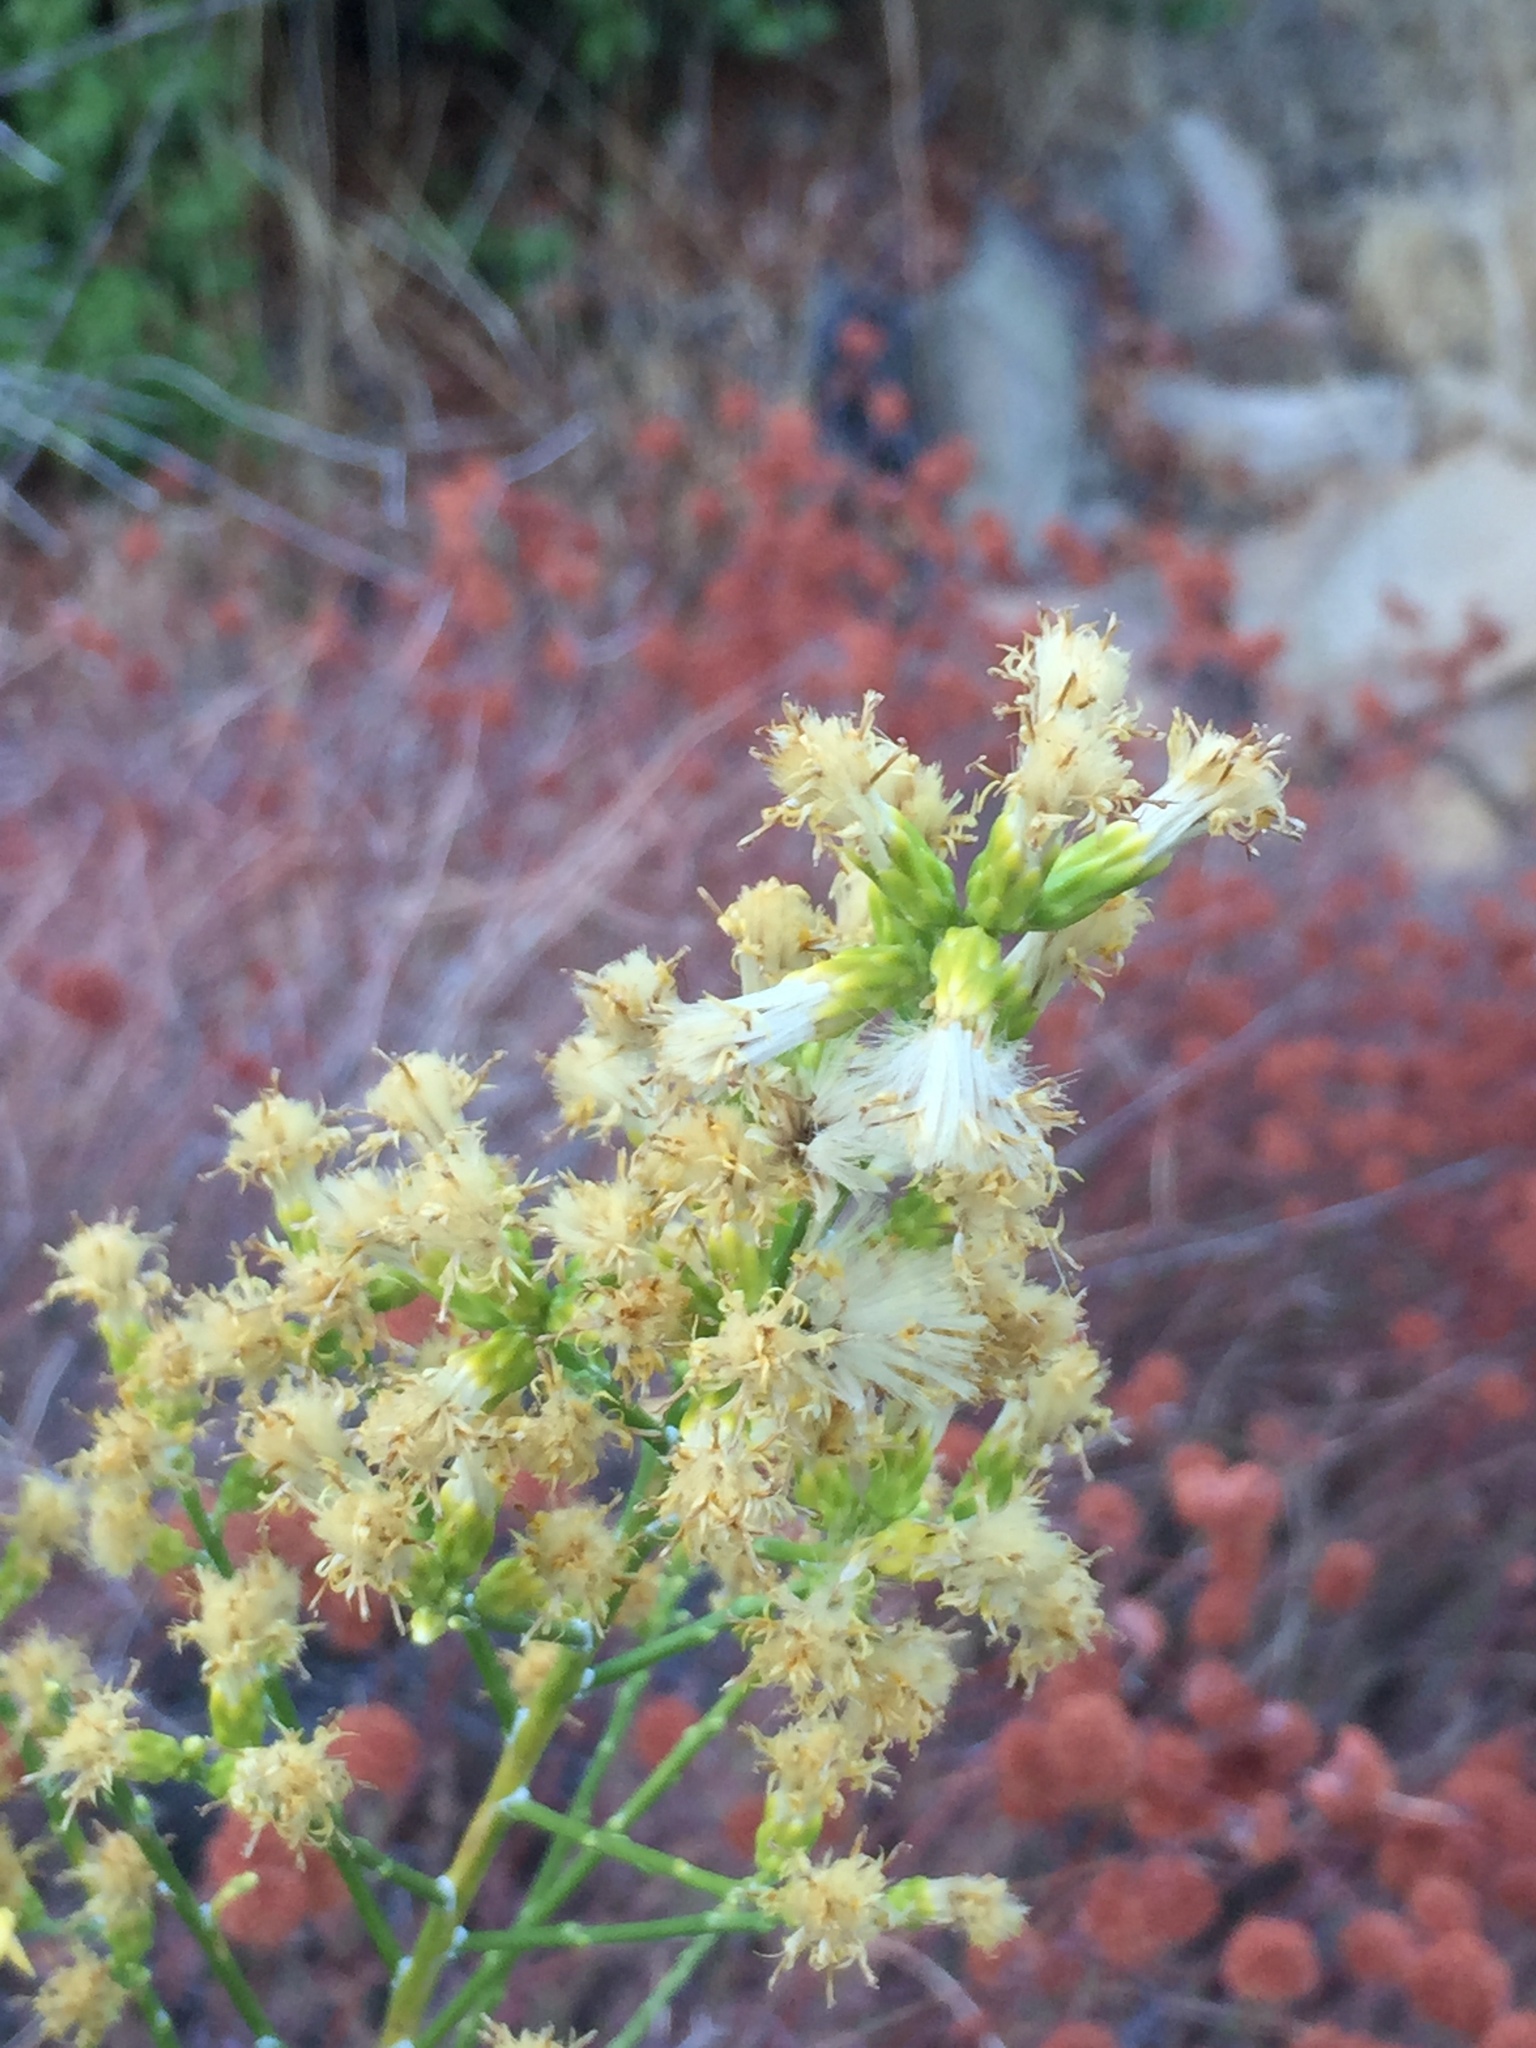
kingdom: Plantae
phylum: Tracheophyta
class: Magnoliopsida
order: Asterales
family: Asteraceae
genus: Lepidospartum
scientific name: Lepidospartum squamatum
